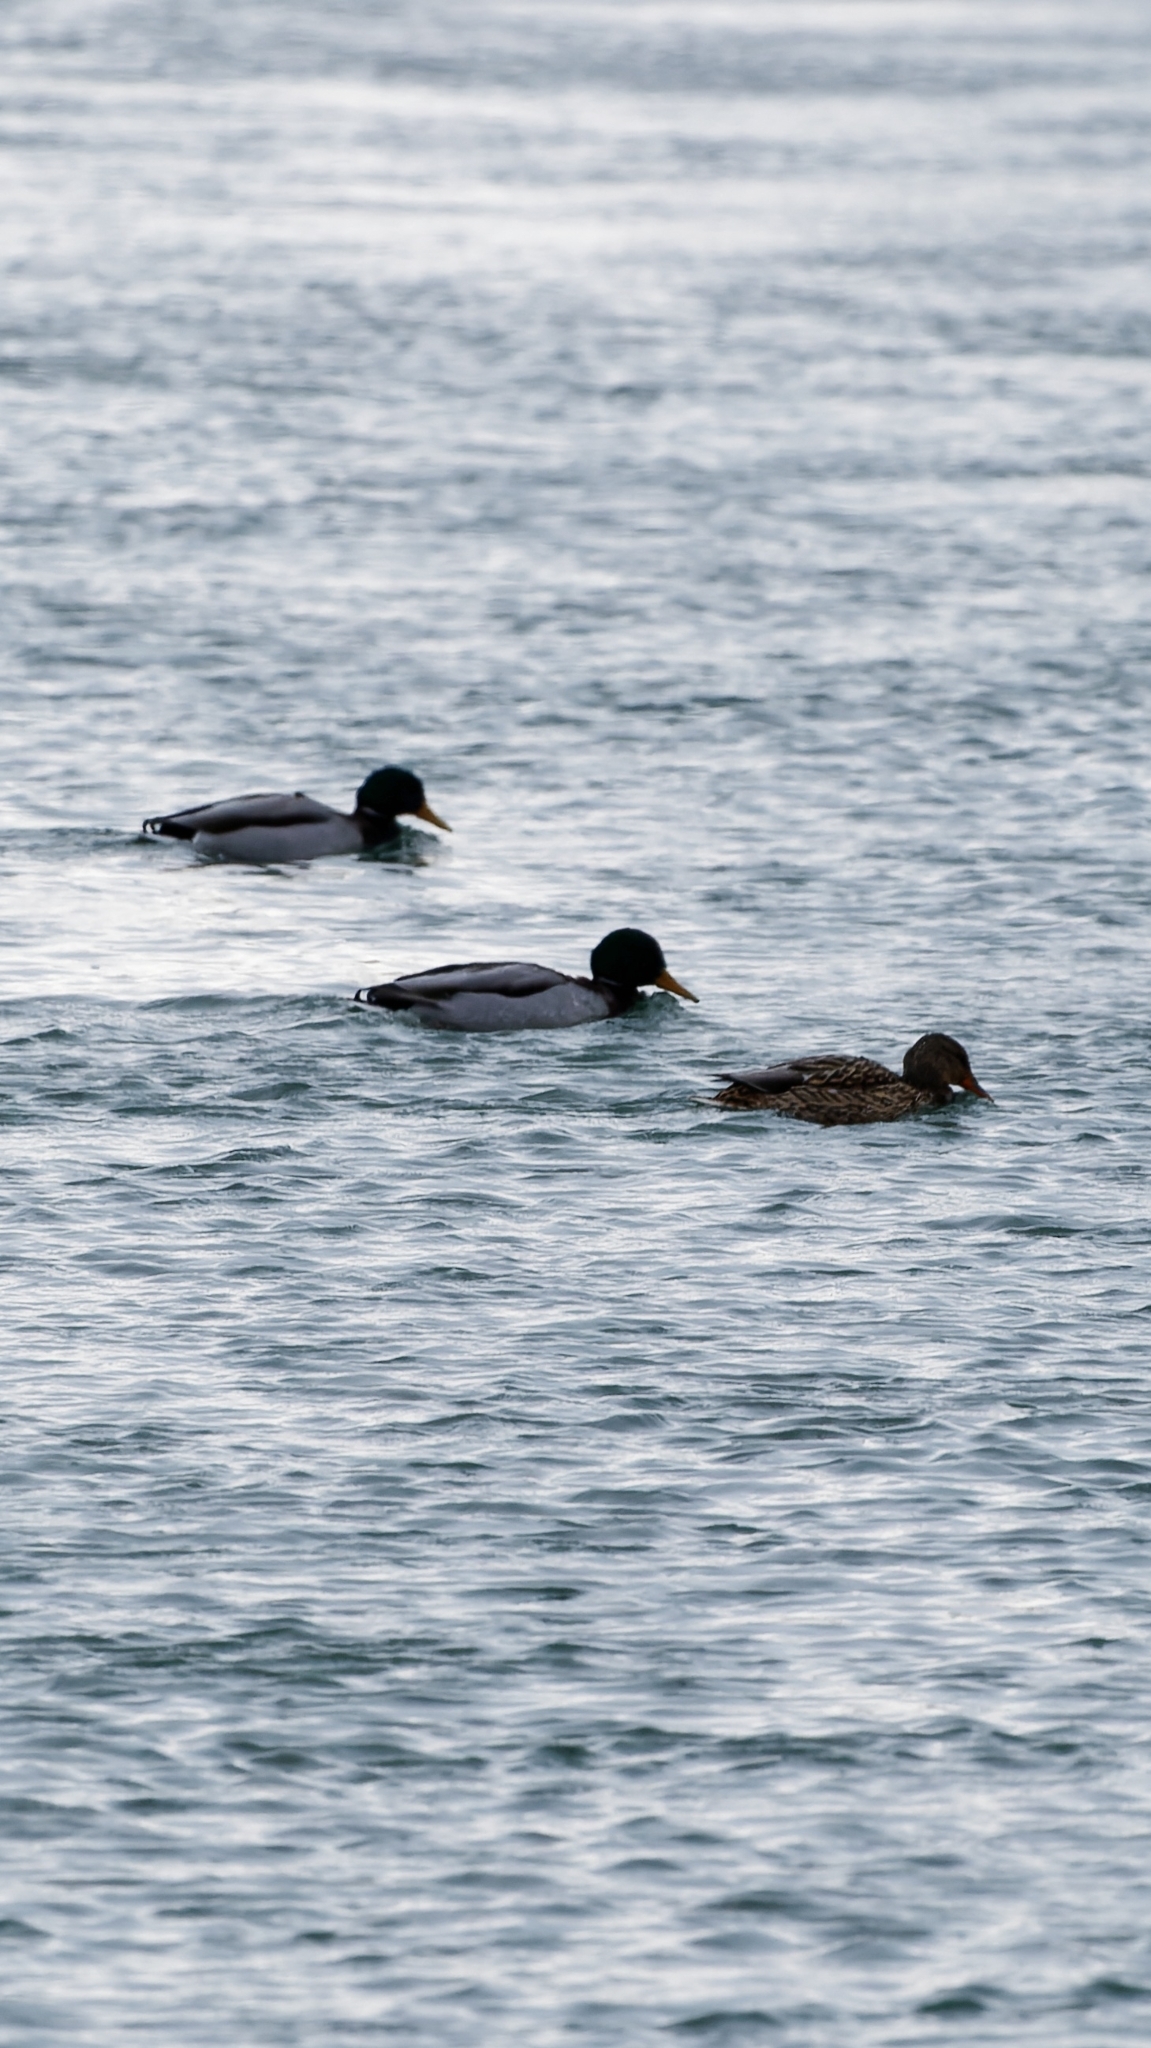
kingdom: Animalia
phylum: Chordata
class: Aves
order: Anseriformes
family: Anatidae
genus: Anas
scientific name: Anas platyrhynchos
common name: Mallard
